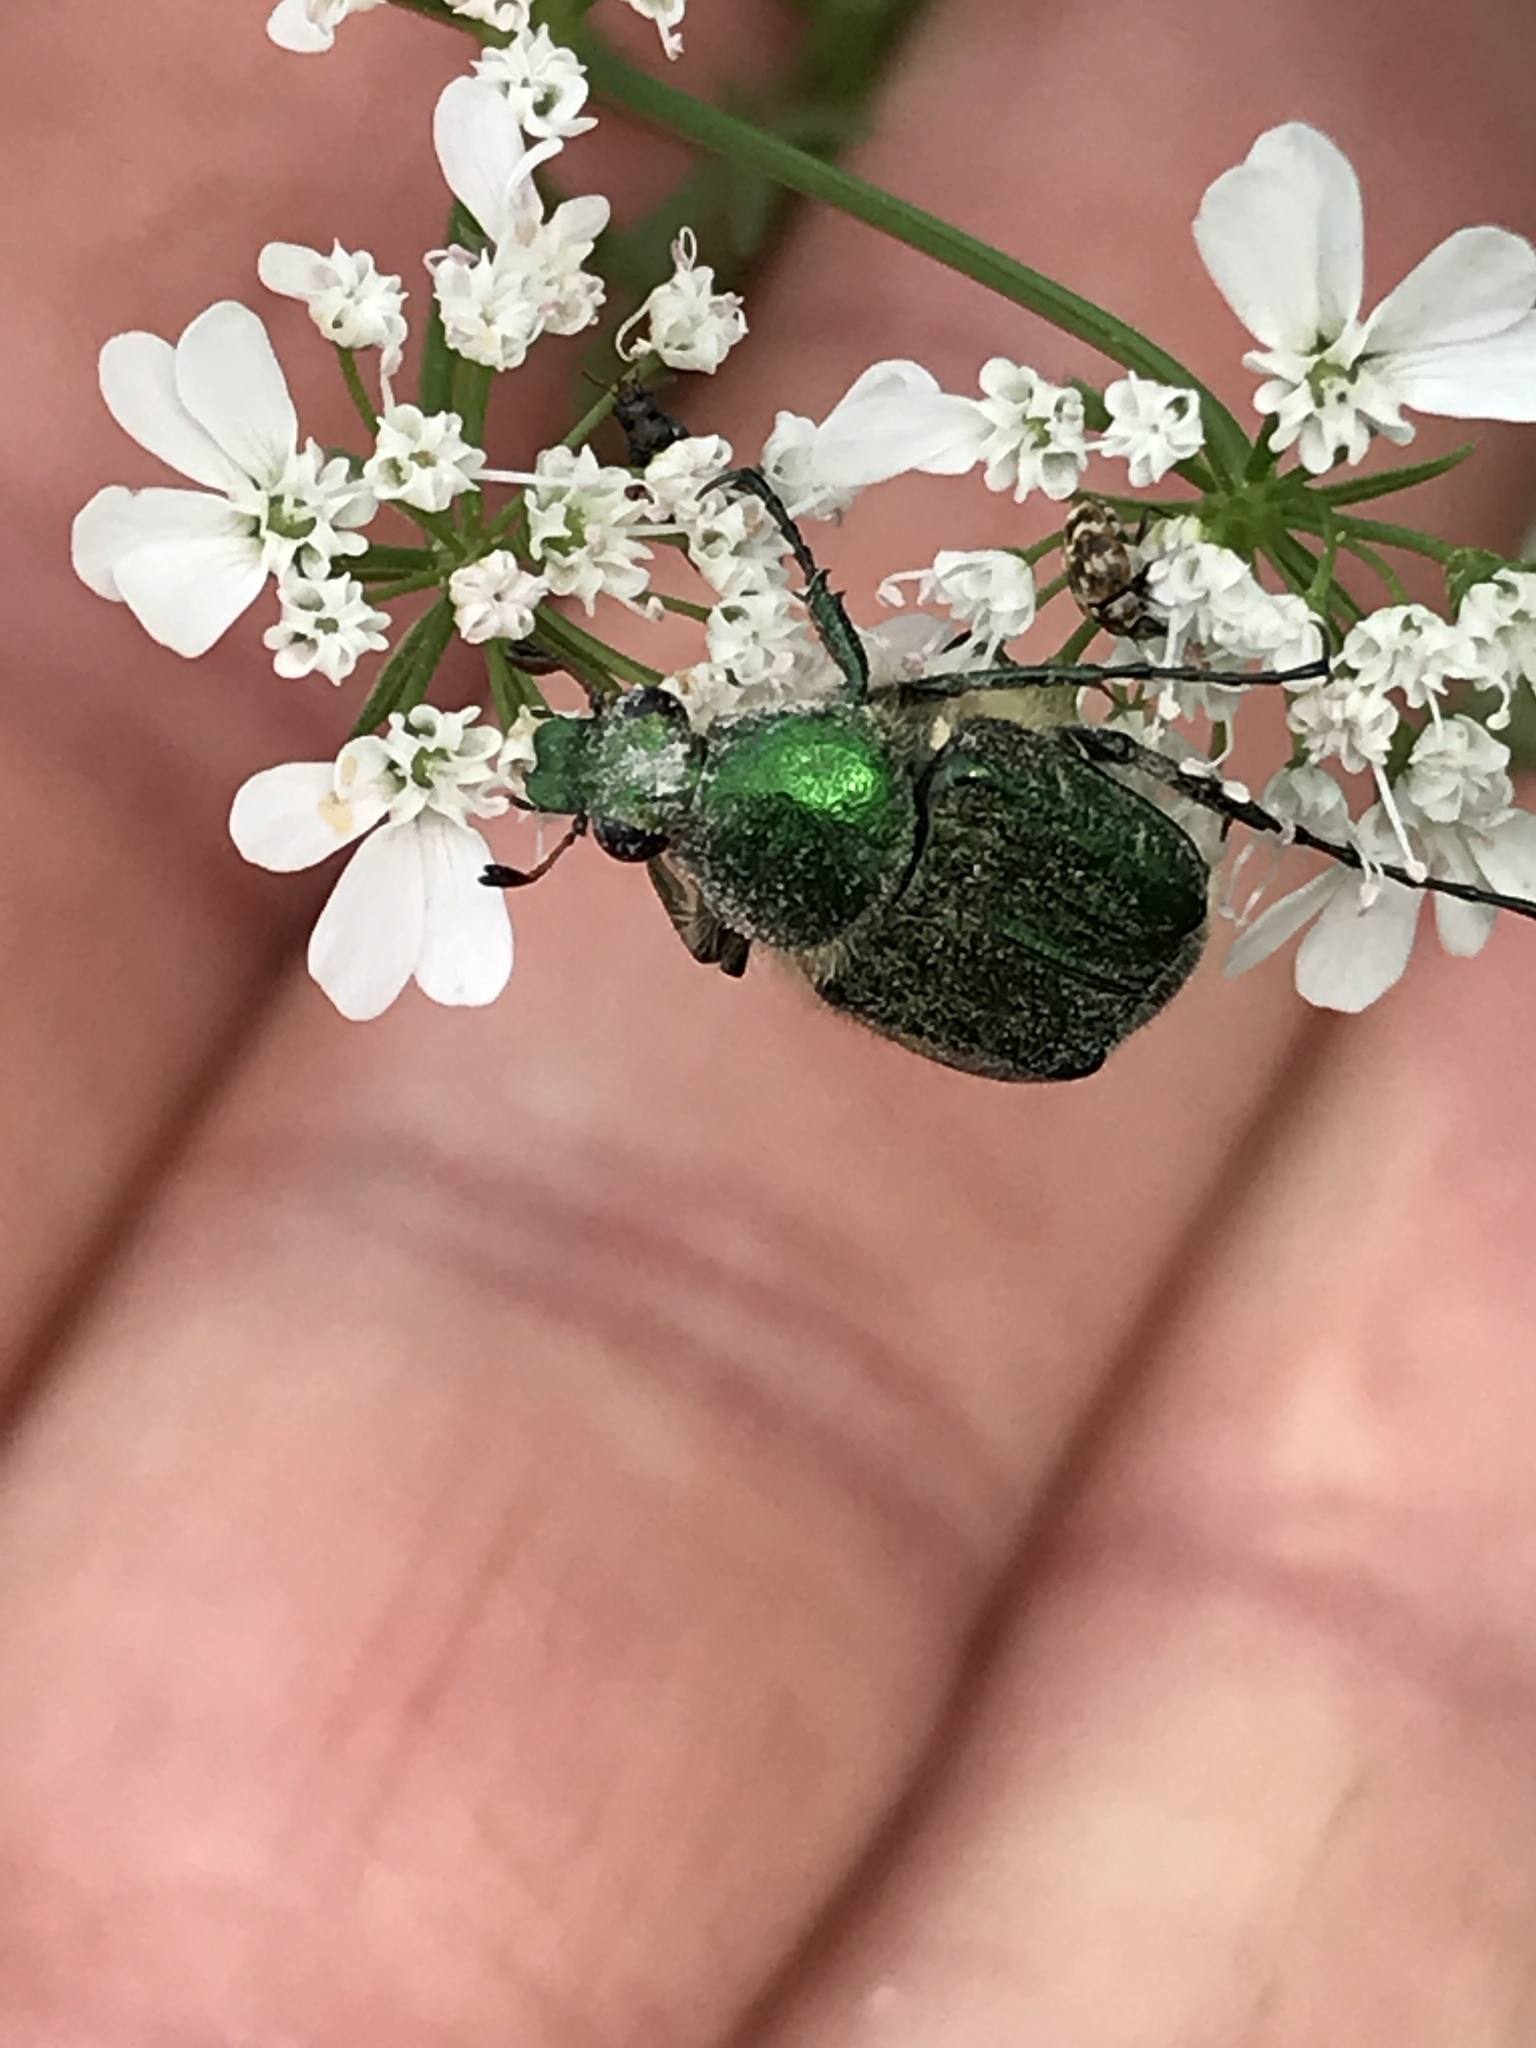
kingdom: Animalia
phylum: Arthropoda
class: Insecta
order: Coleoptera
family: Scarabaeidae
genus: Trichiotinus
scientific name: Trichiotinus lunulatus
